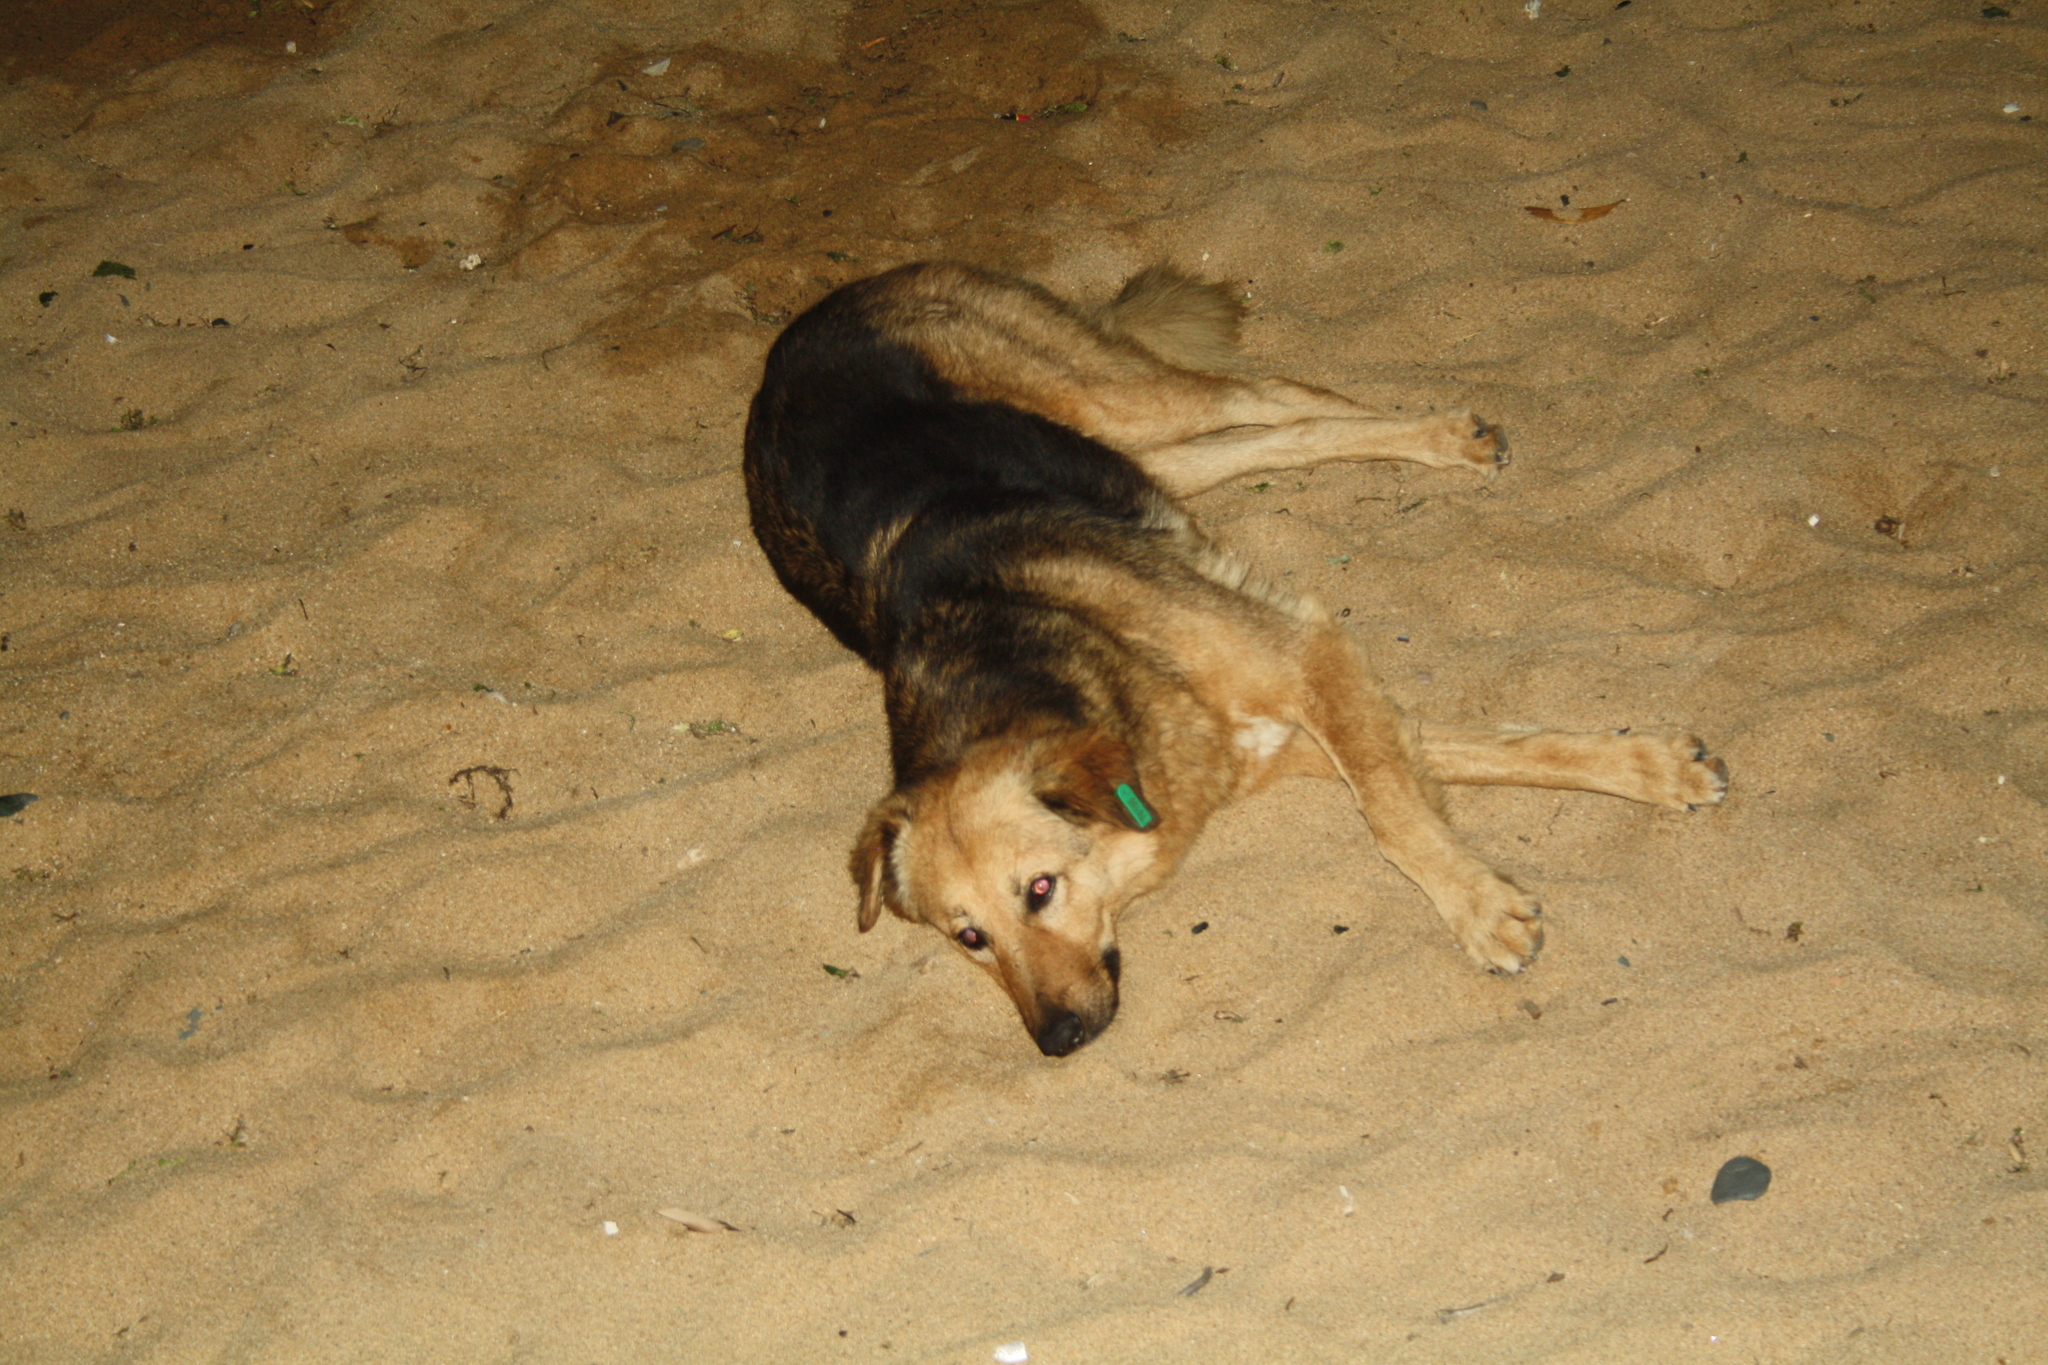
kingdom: Animalia
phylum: Chordata
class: Mammalia
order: Carnivora
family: Canidae
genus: Canis
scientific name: Canis lupus
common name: Gray wolf
